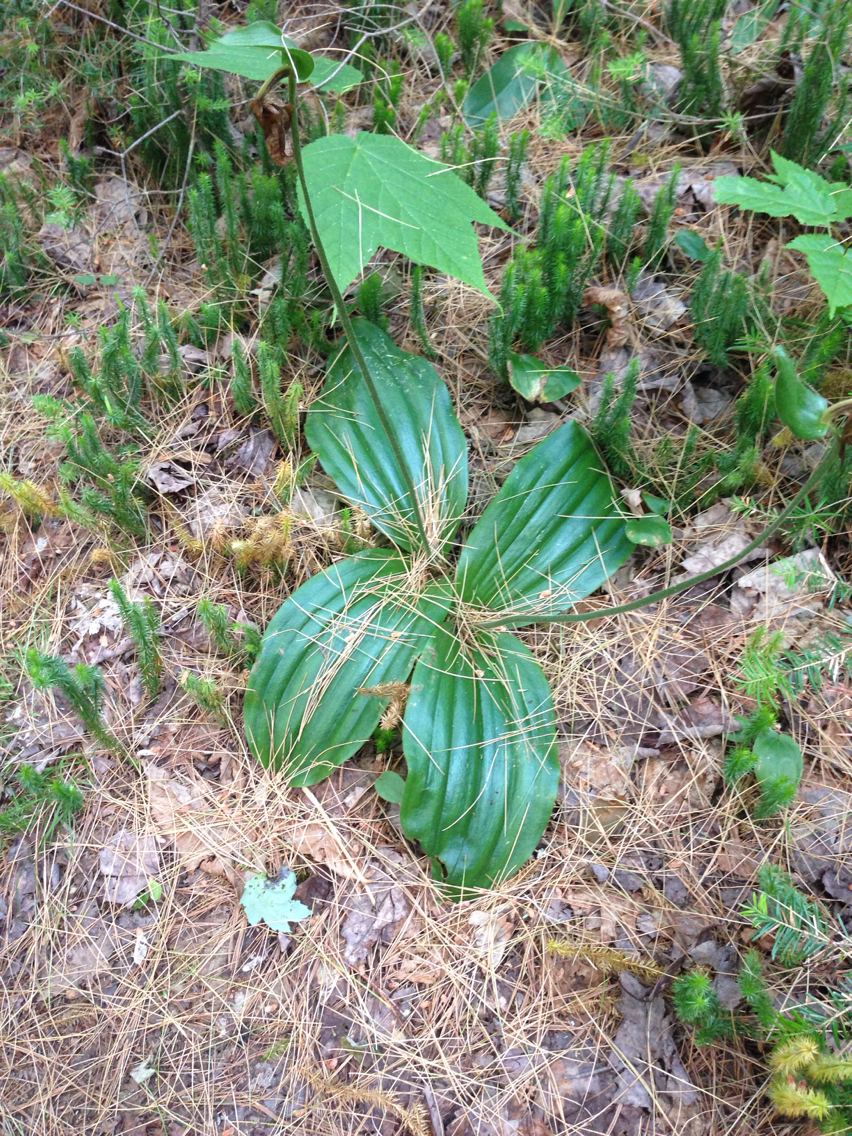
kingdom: Plantae
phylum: Tracheophyta
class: Liliopsida
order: Asparagales
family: Orchidaceae
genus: Cypripedium
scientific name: Cypripedium acaule
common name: Pink lady's-slipper
